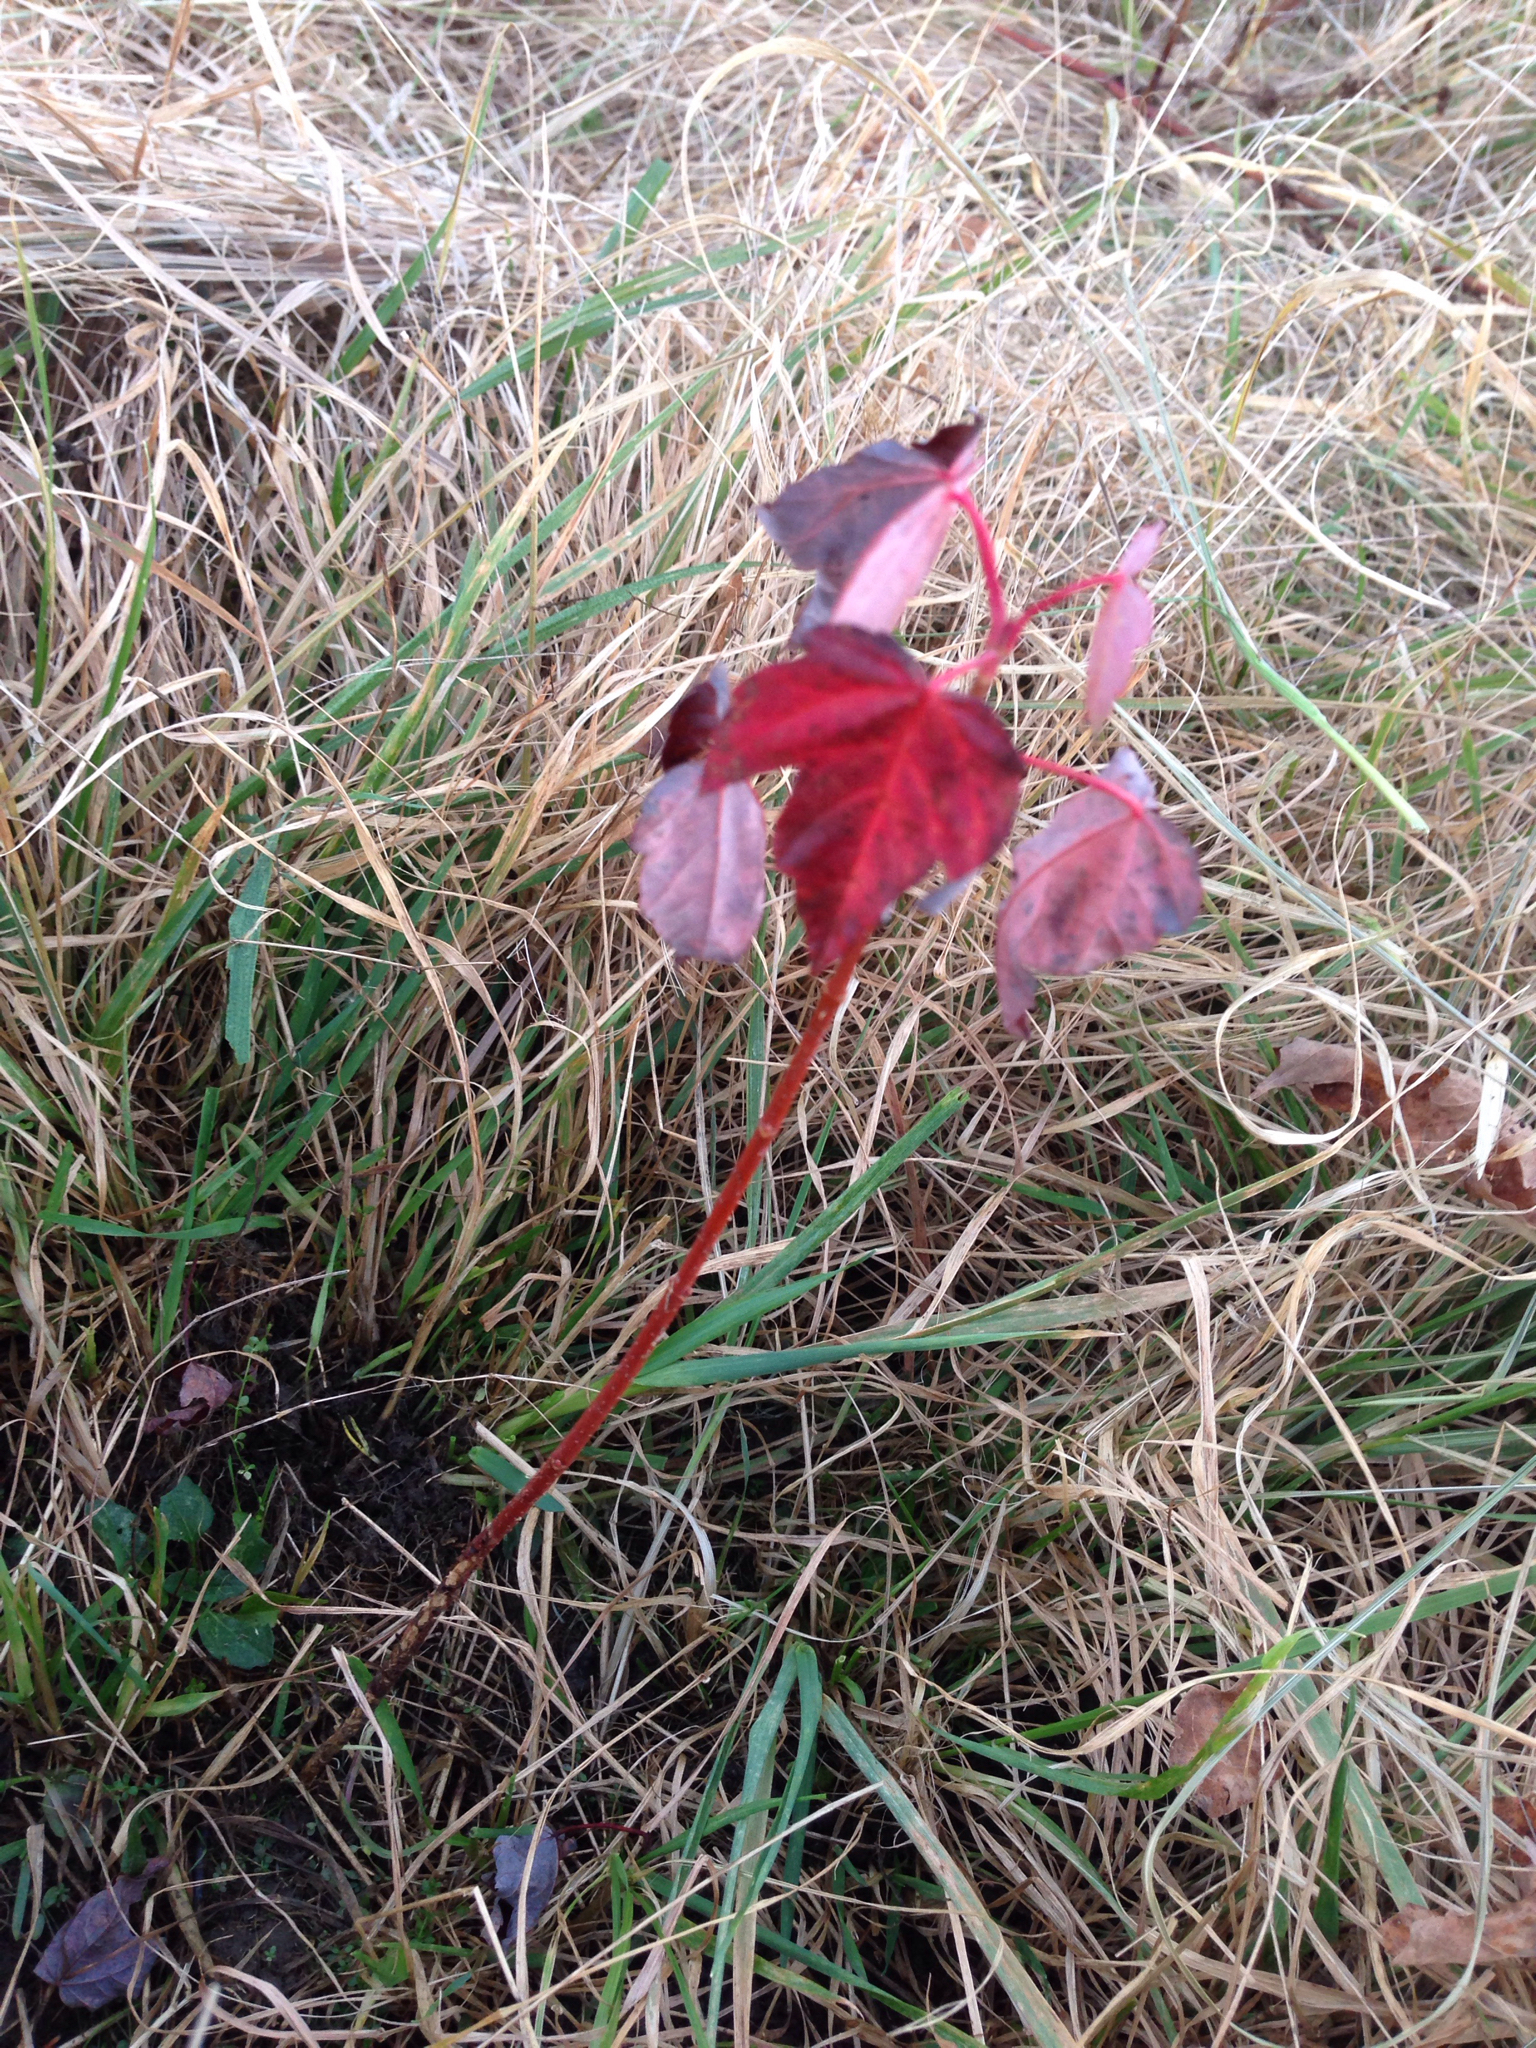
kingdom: Plantae
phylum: Tracheophyta
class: Magnoliopsida
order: Sapindales
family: Sapindaceae
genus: Acer
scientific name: Acer rubrum
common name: Red maple
